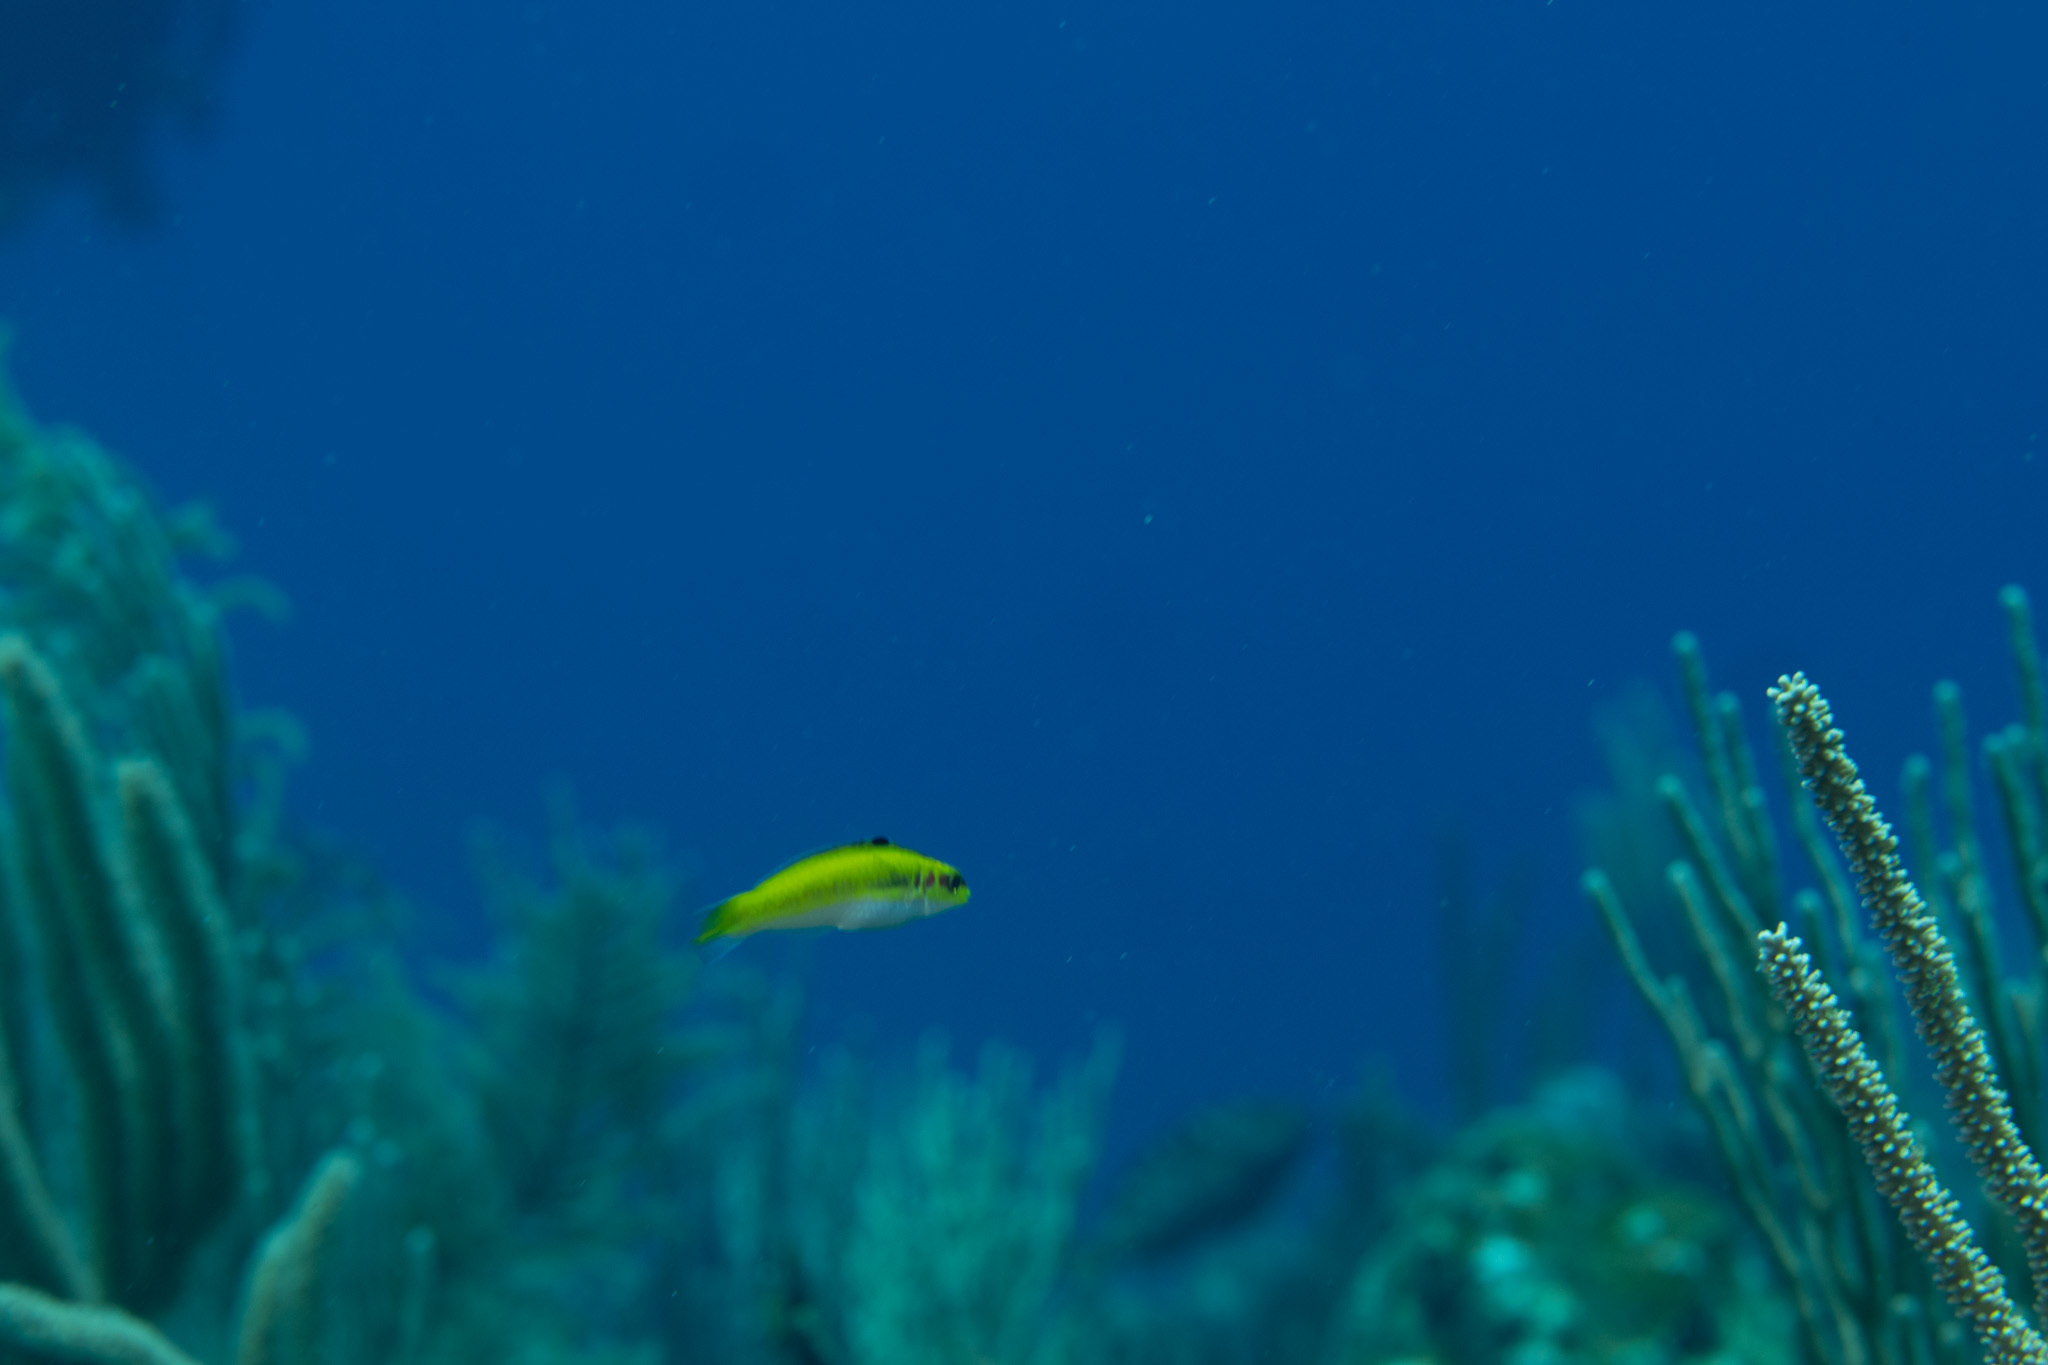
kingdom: Animalia
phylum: Chordata
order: Perciformes
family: Labridae
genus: Thalassoma
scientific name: Thalassoma bifasciatum
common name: Bluehead wrasse
